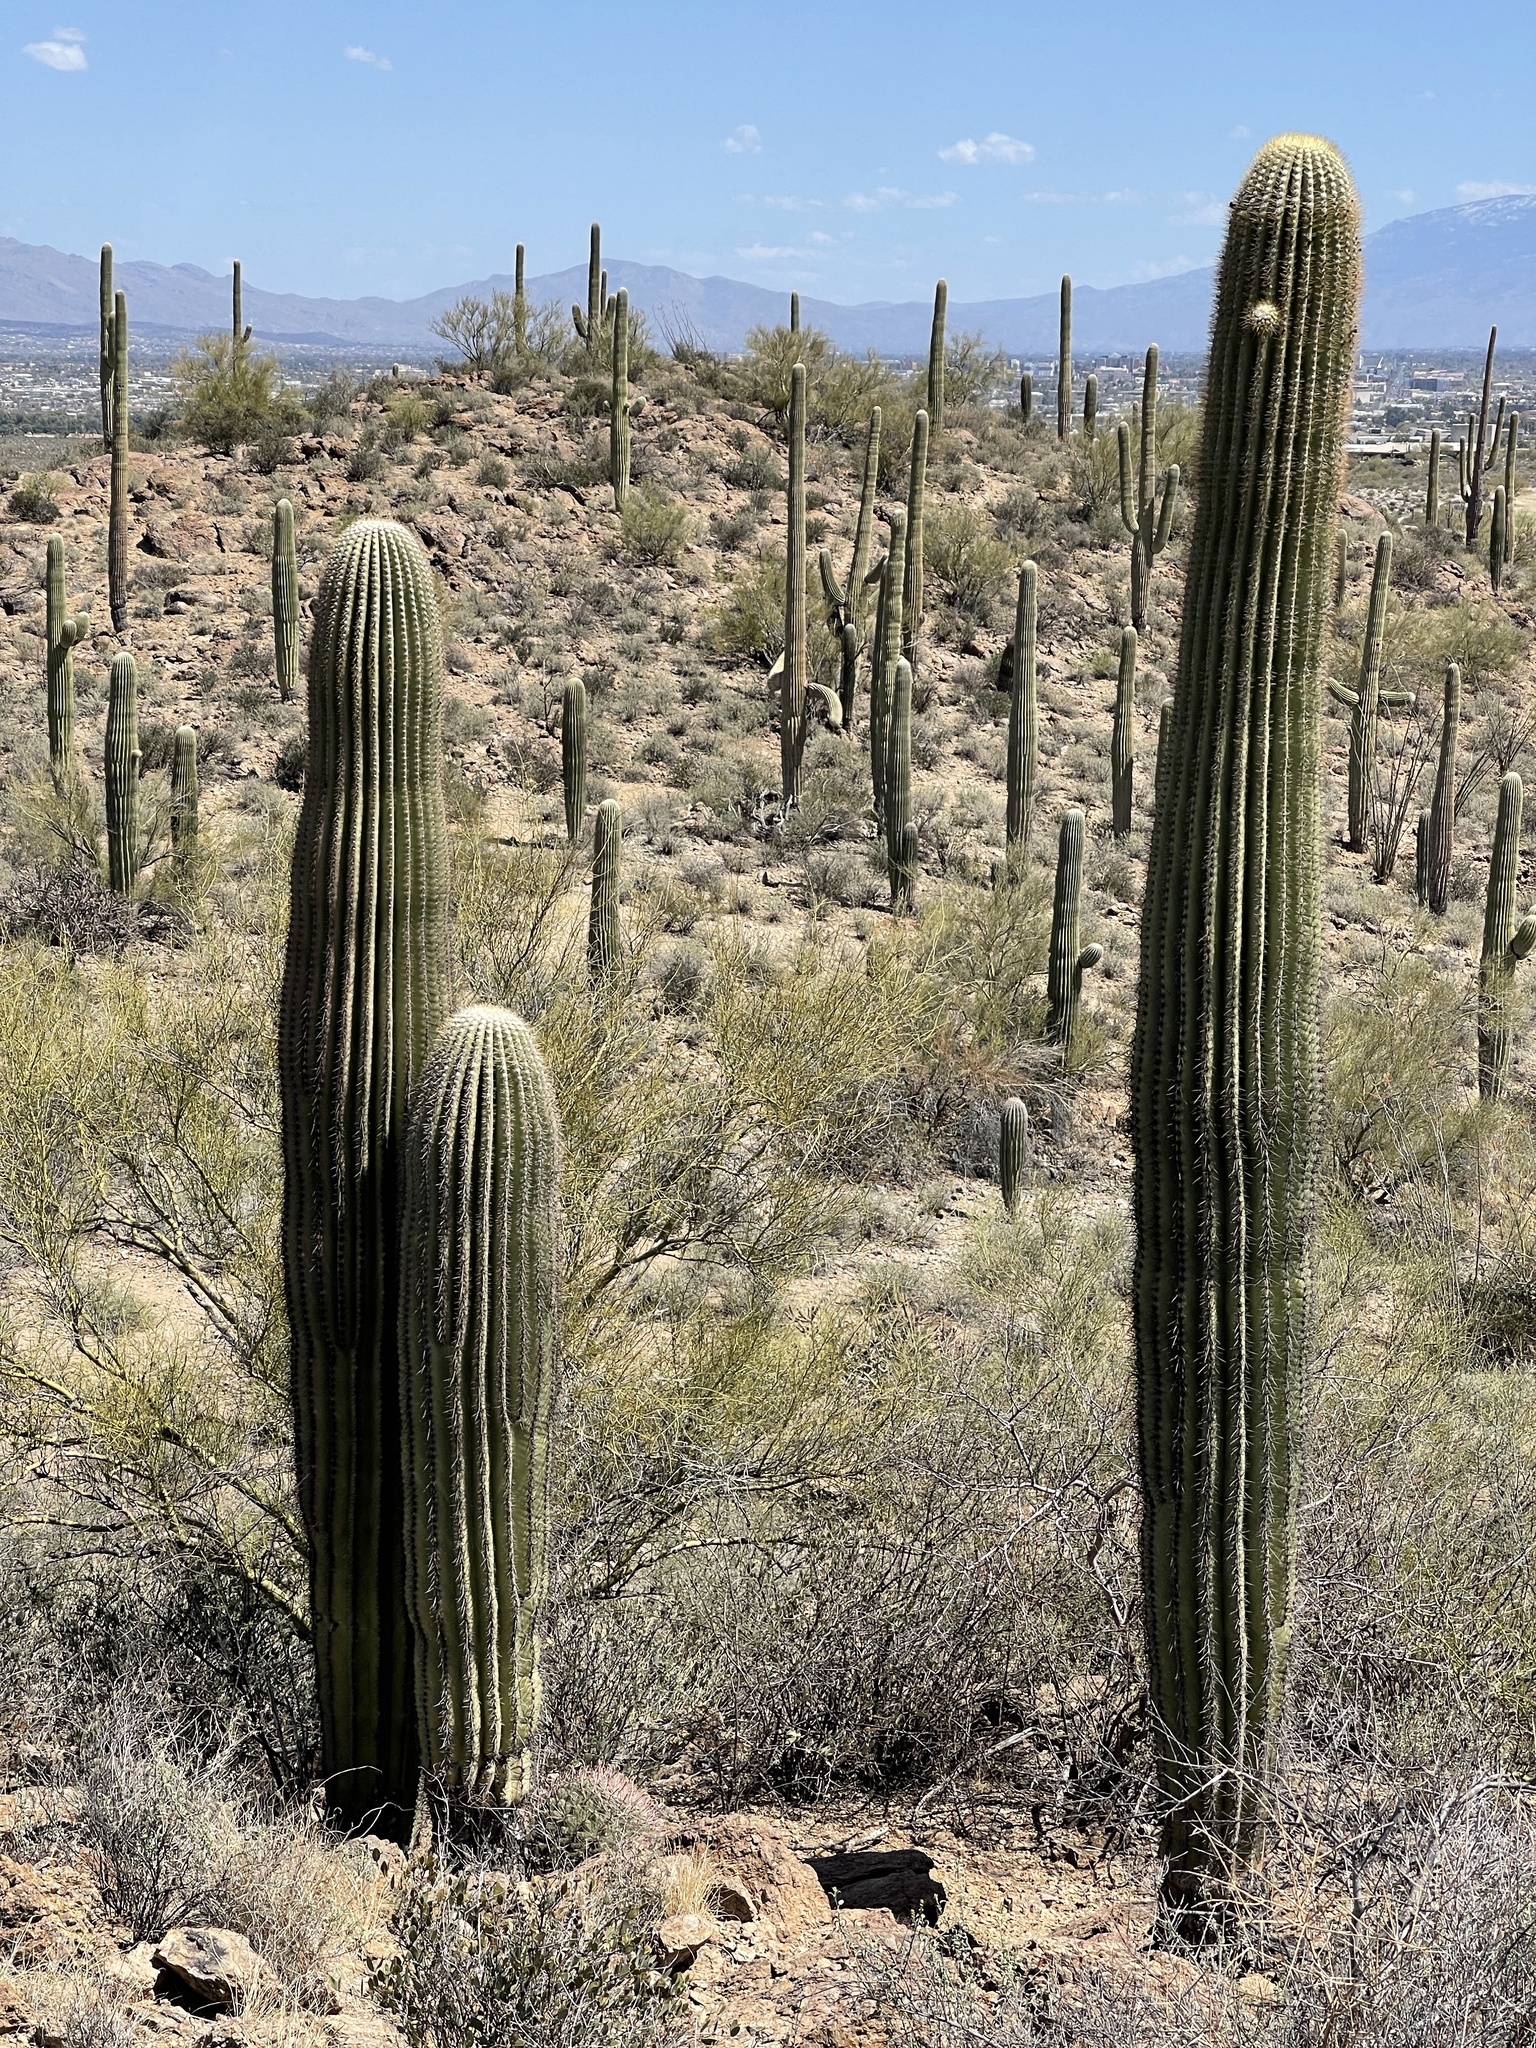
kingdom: Plantae
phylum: Tracheophyta
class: Magnoliopsida
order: Caryophyllales
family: Cactaceae
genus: Carnegiea
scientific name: Carnegiea gigantea
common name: Saguaro
